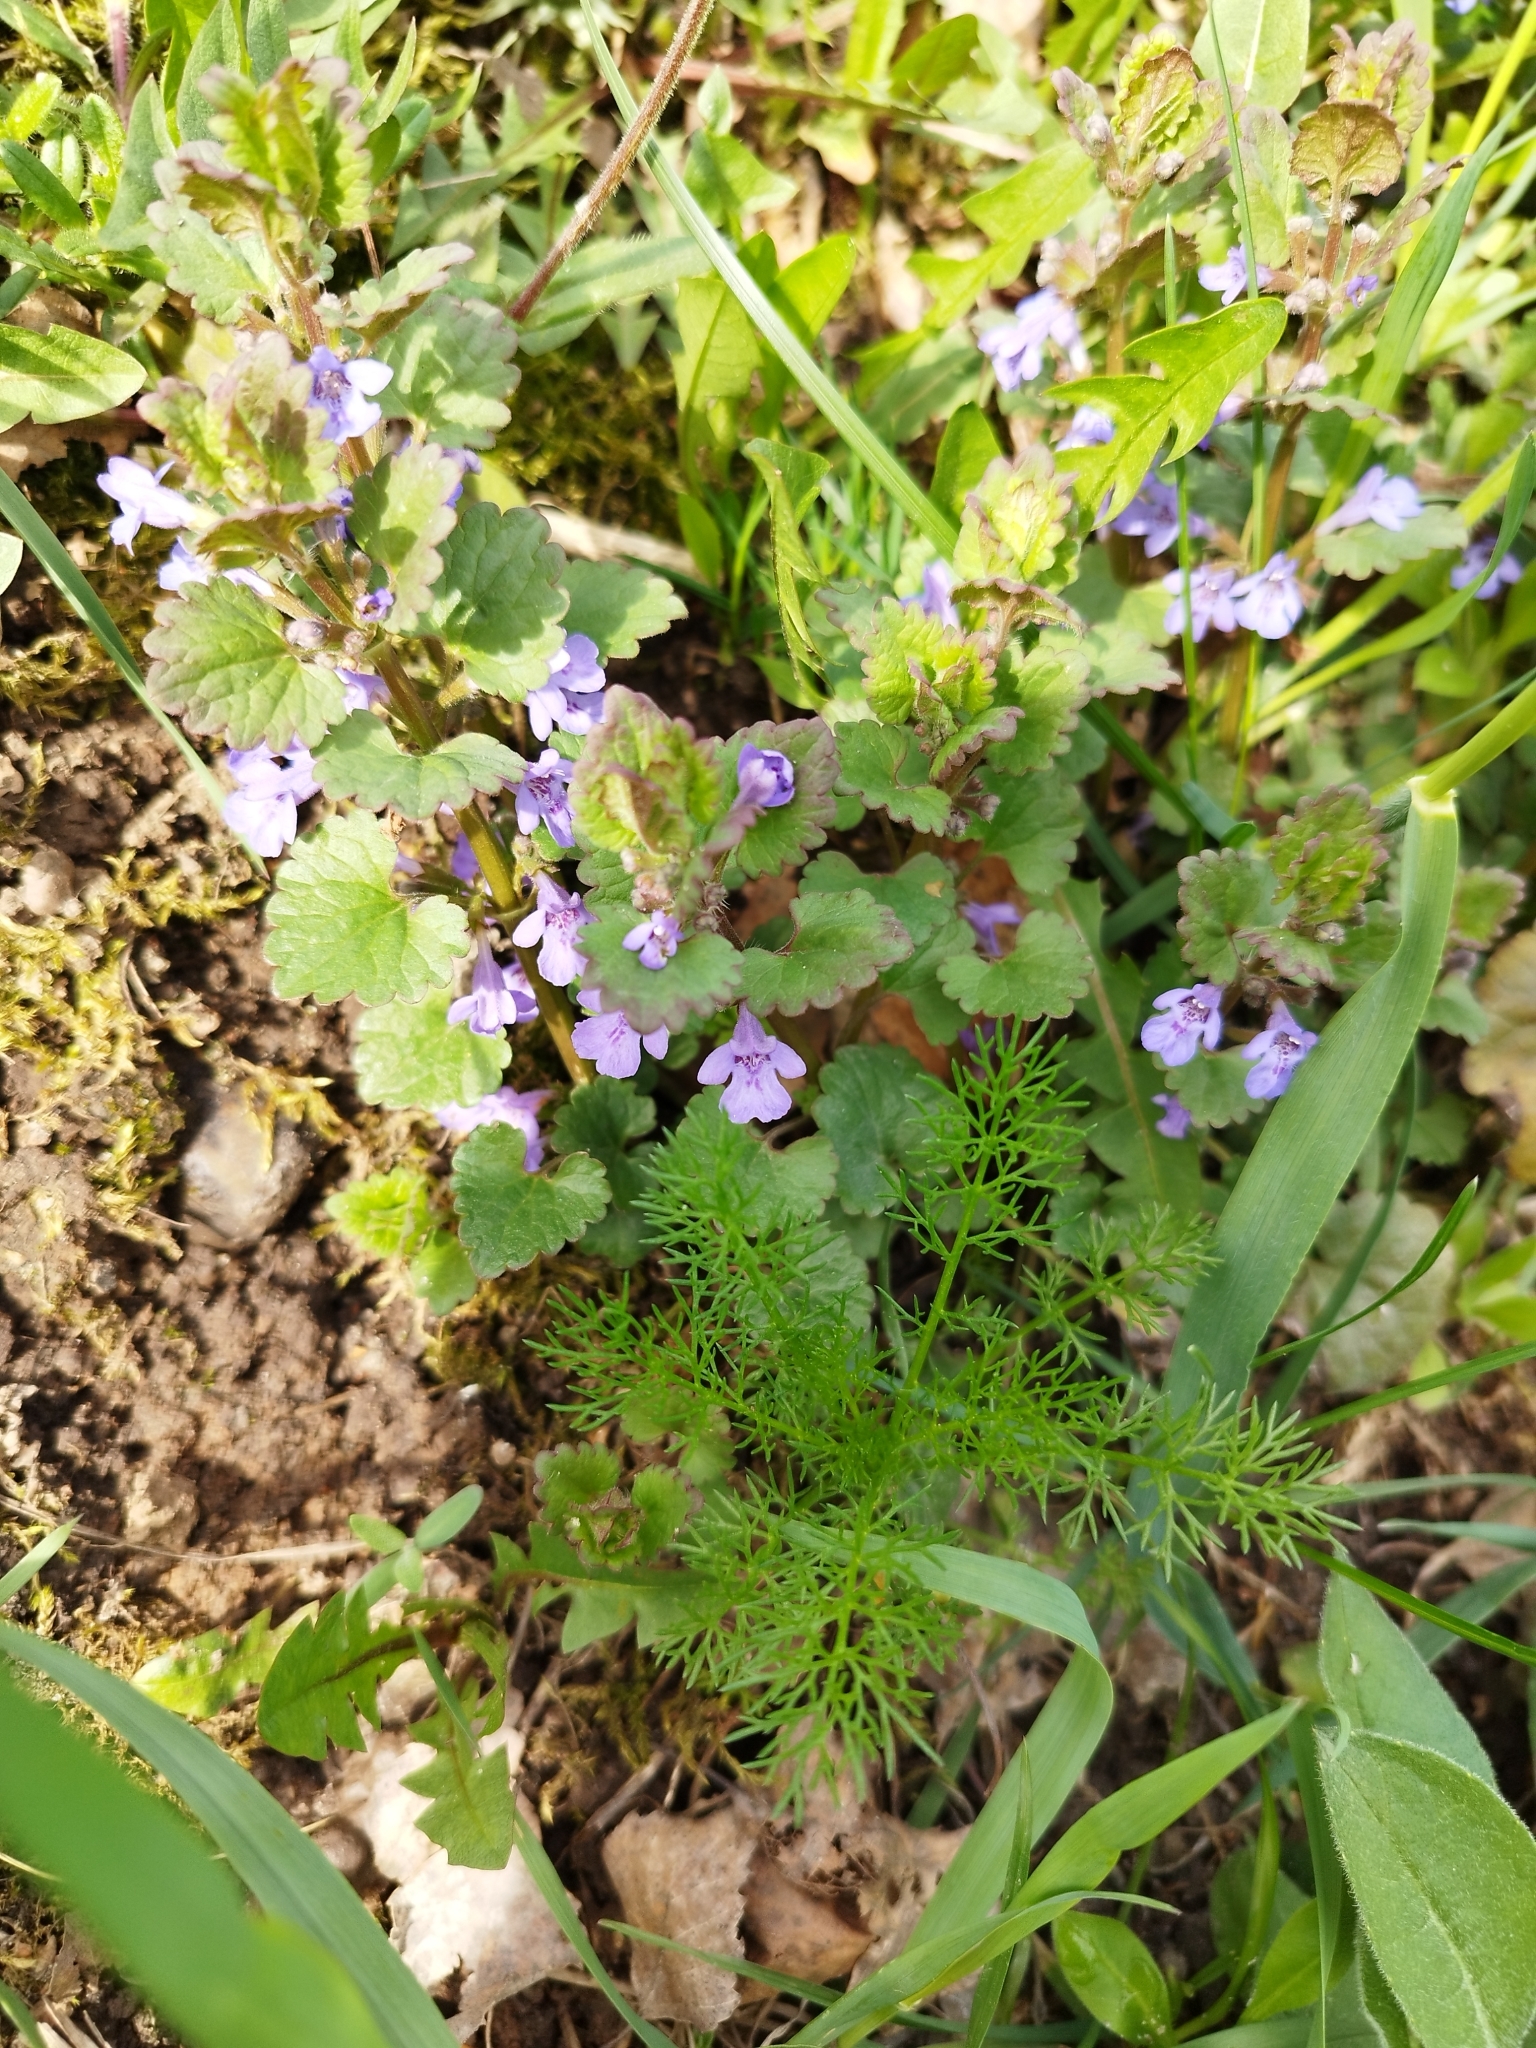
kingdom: Plantae
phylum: Tracheophyta
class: Magnoliopsida
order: Lamiales
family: Lamiaceae
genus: Glechoma
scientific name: Glechoma hederacea
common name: Ground ivy
